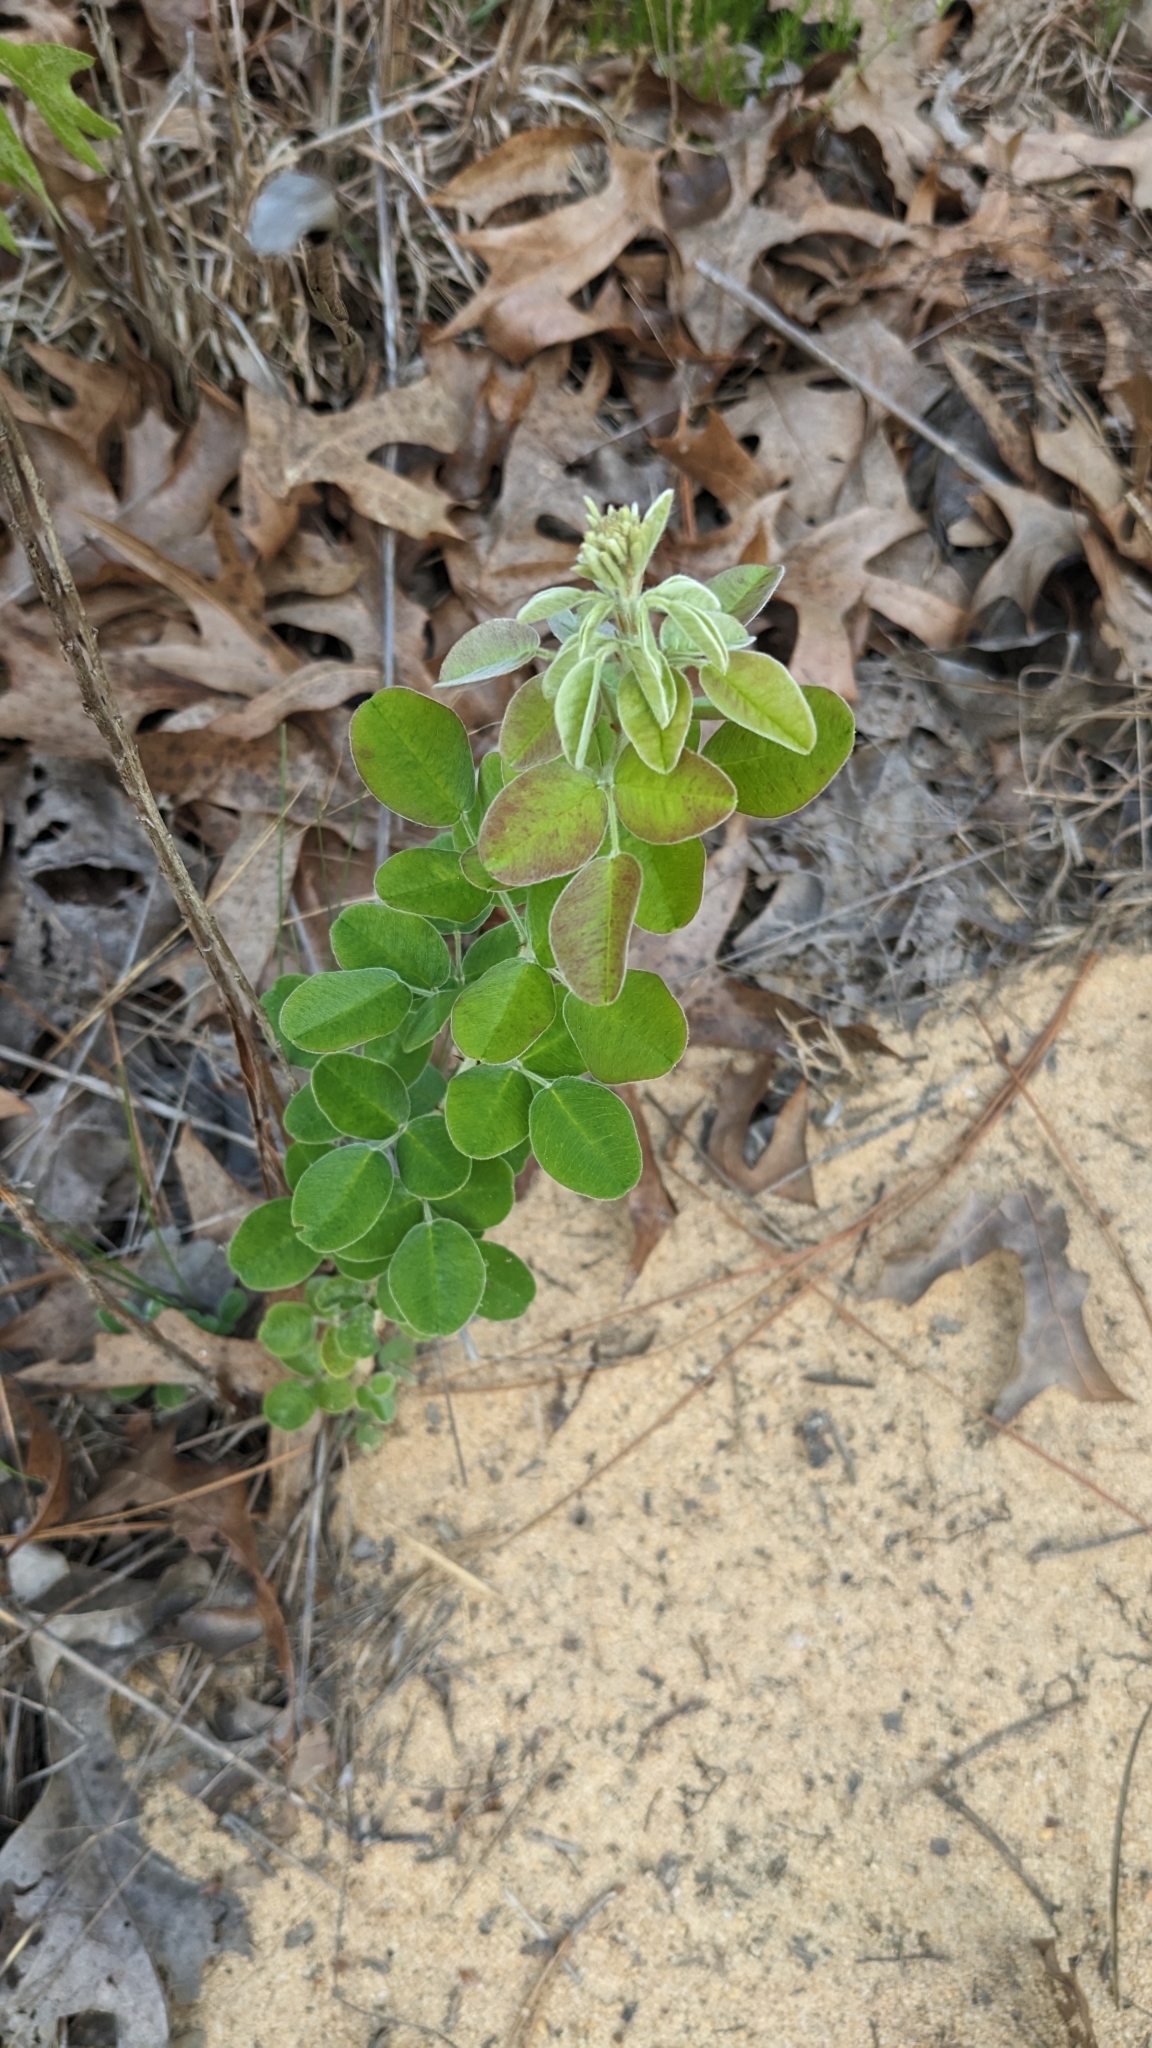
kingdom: Plantae
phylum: Tracheophyta
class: Magnoliopsida
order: Fabales
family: Fabaceae
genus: Lespedeza
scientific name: Lespedeza hirta
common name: Hairy lespedeza
